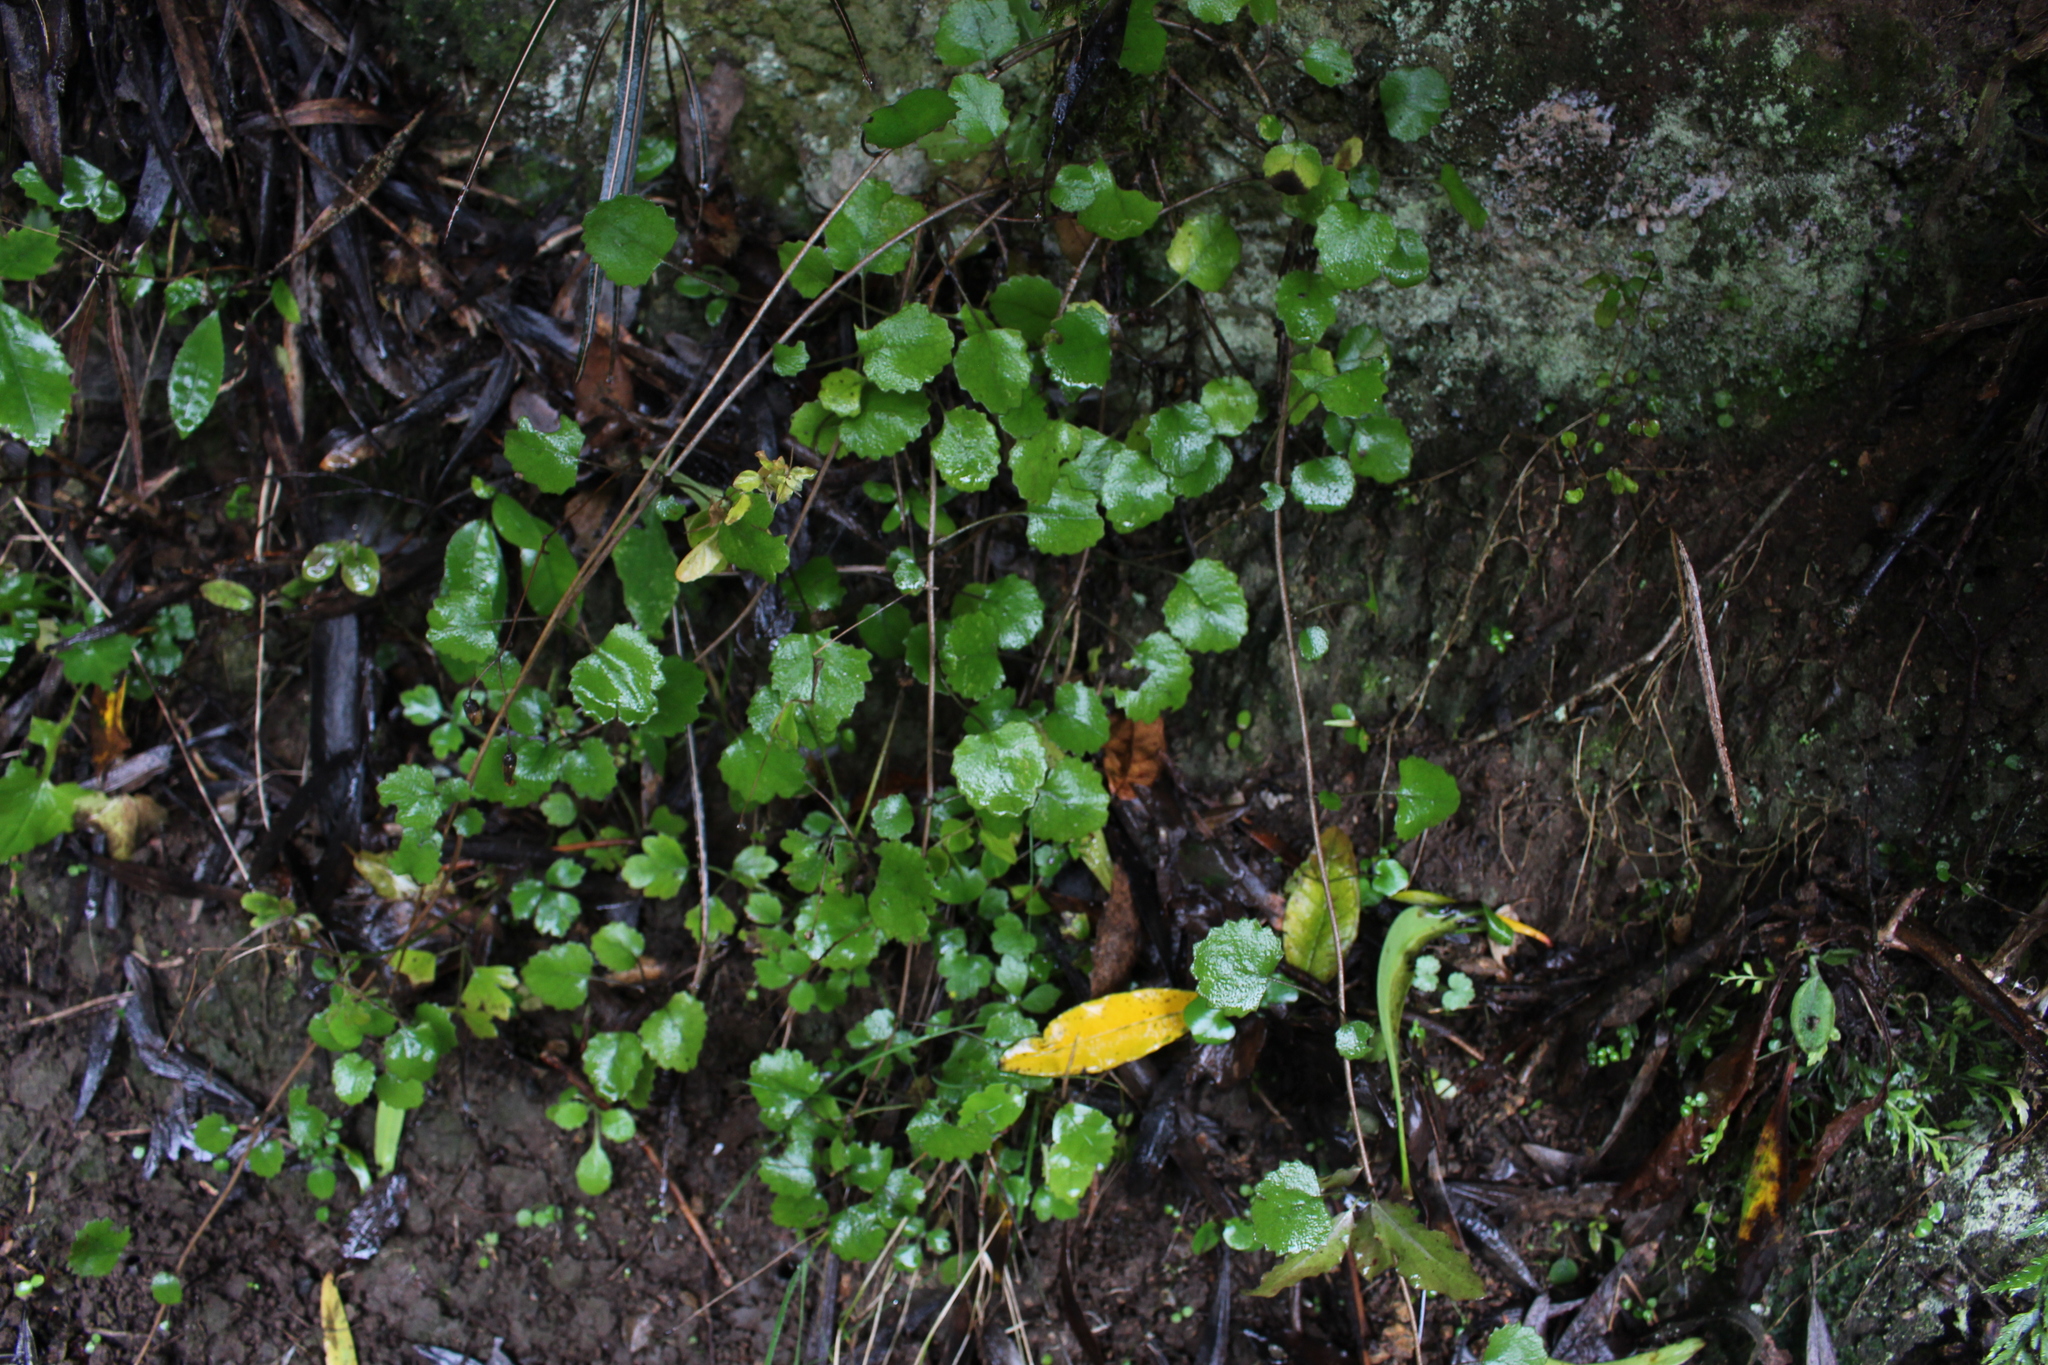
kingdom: Plantae
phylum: Tracheophyta
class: Magnoliopsida
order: Asterales
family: Asteraceae
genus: Brachyglottis
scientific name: Brachyglottis sciadophila
